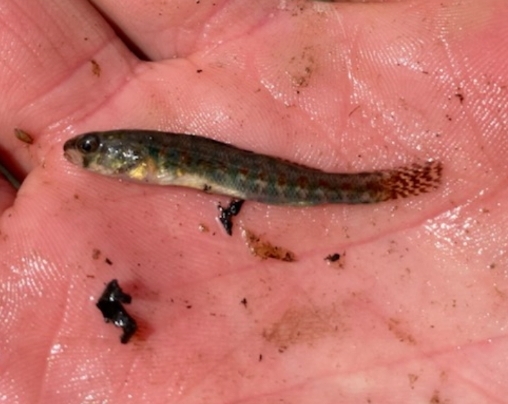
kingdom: Animalia
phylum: Chordata
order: Perciformes
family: Percidae
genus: Etheostoma
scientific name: Etheostoma exile
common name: Iowa darter
